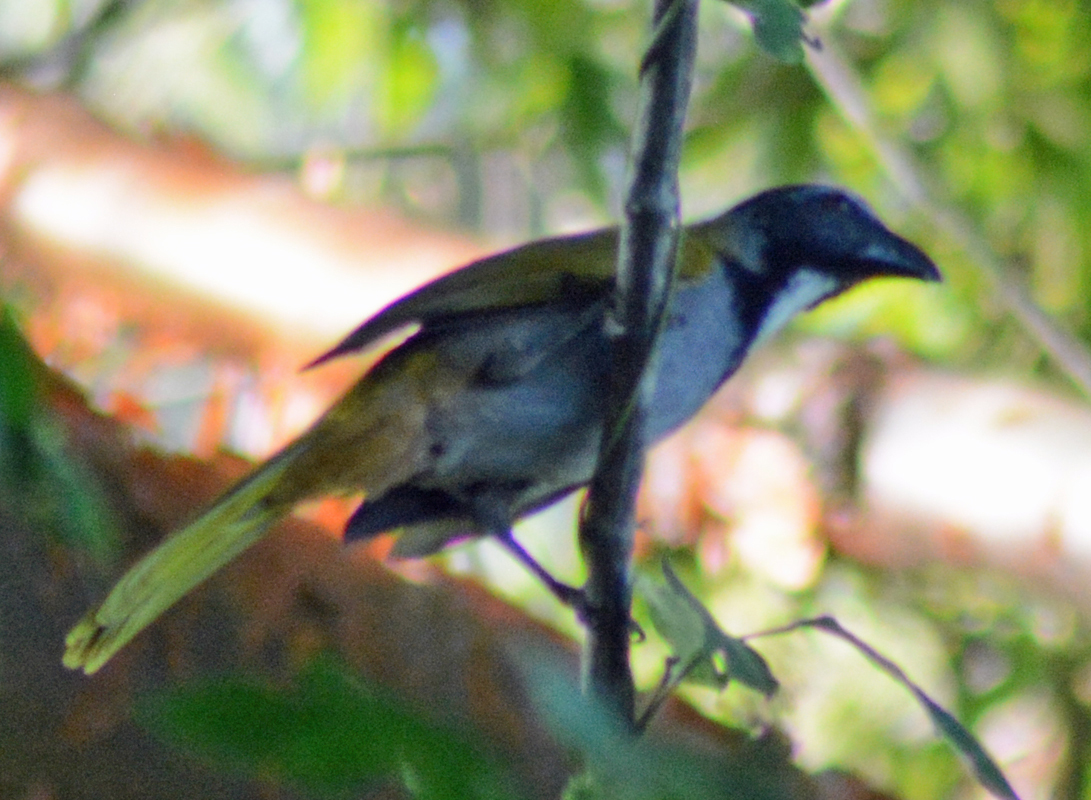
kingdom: Animalia
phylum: Chordata
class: Aves
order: Passeriformes
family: Thraupidae
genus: Saltator
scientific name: Saltator atriceps
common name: Black-headed saltator
